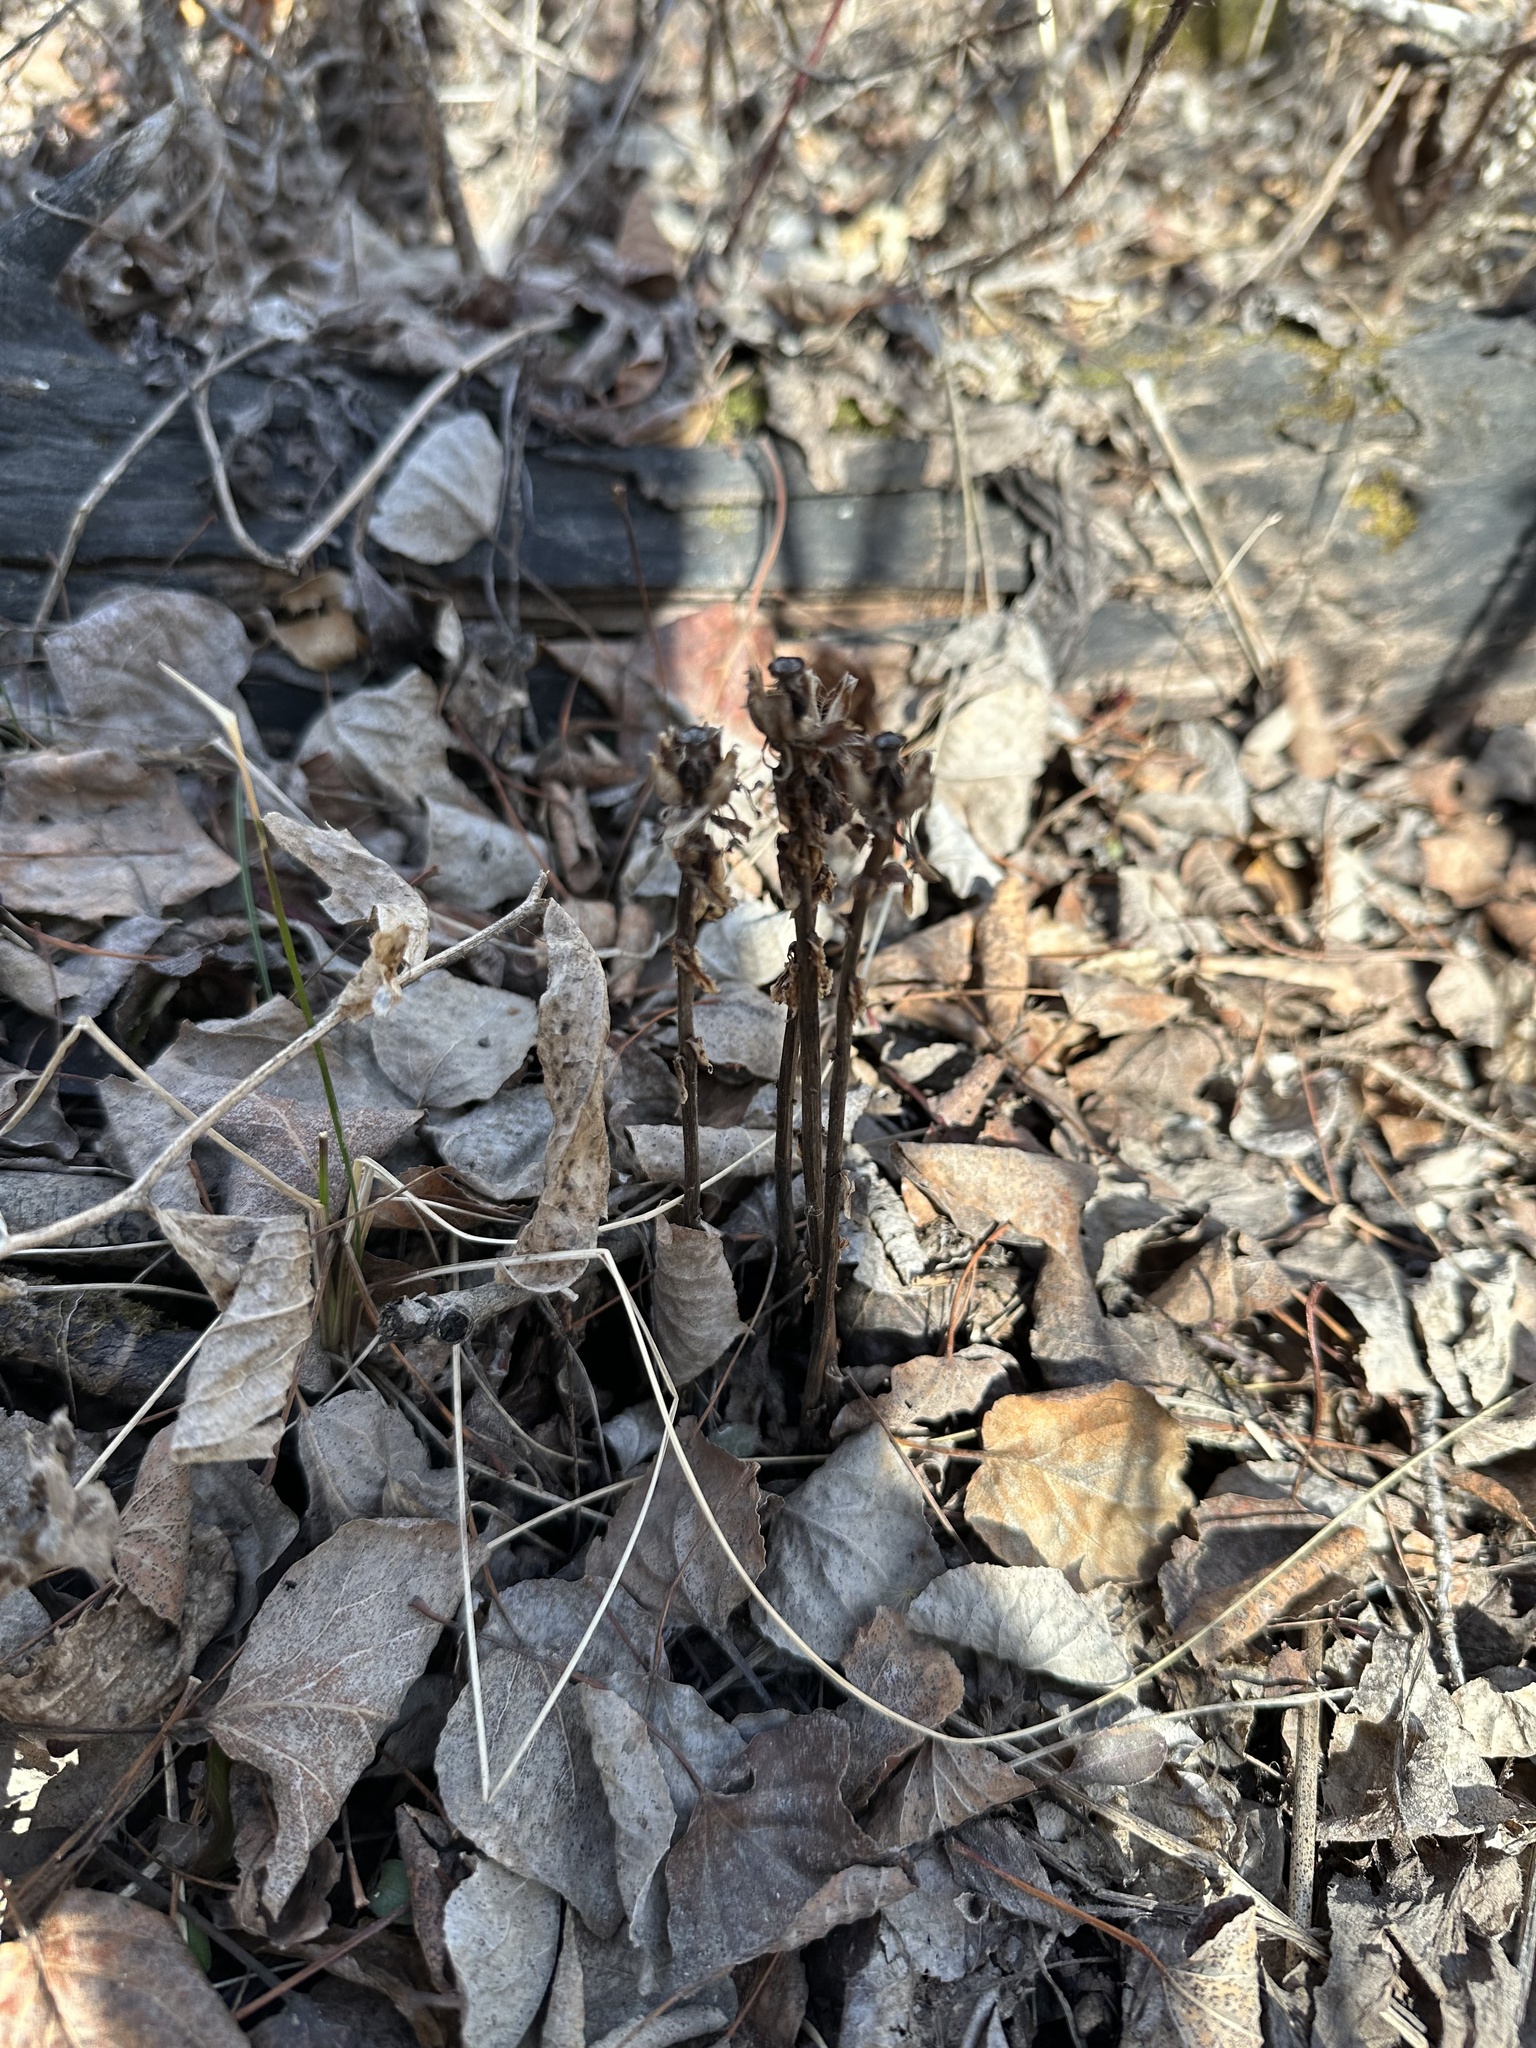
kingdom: Plantae
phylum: Tracheophyta
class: Magnoliopsida
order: Ericales
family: Ericaceae
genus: Monotropa
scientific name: Monotropa uniflora
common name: Convulsion root
